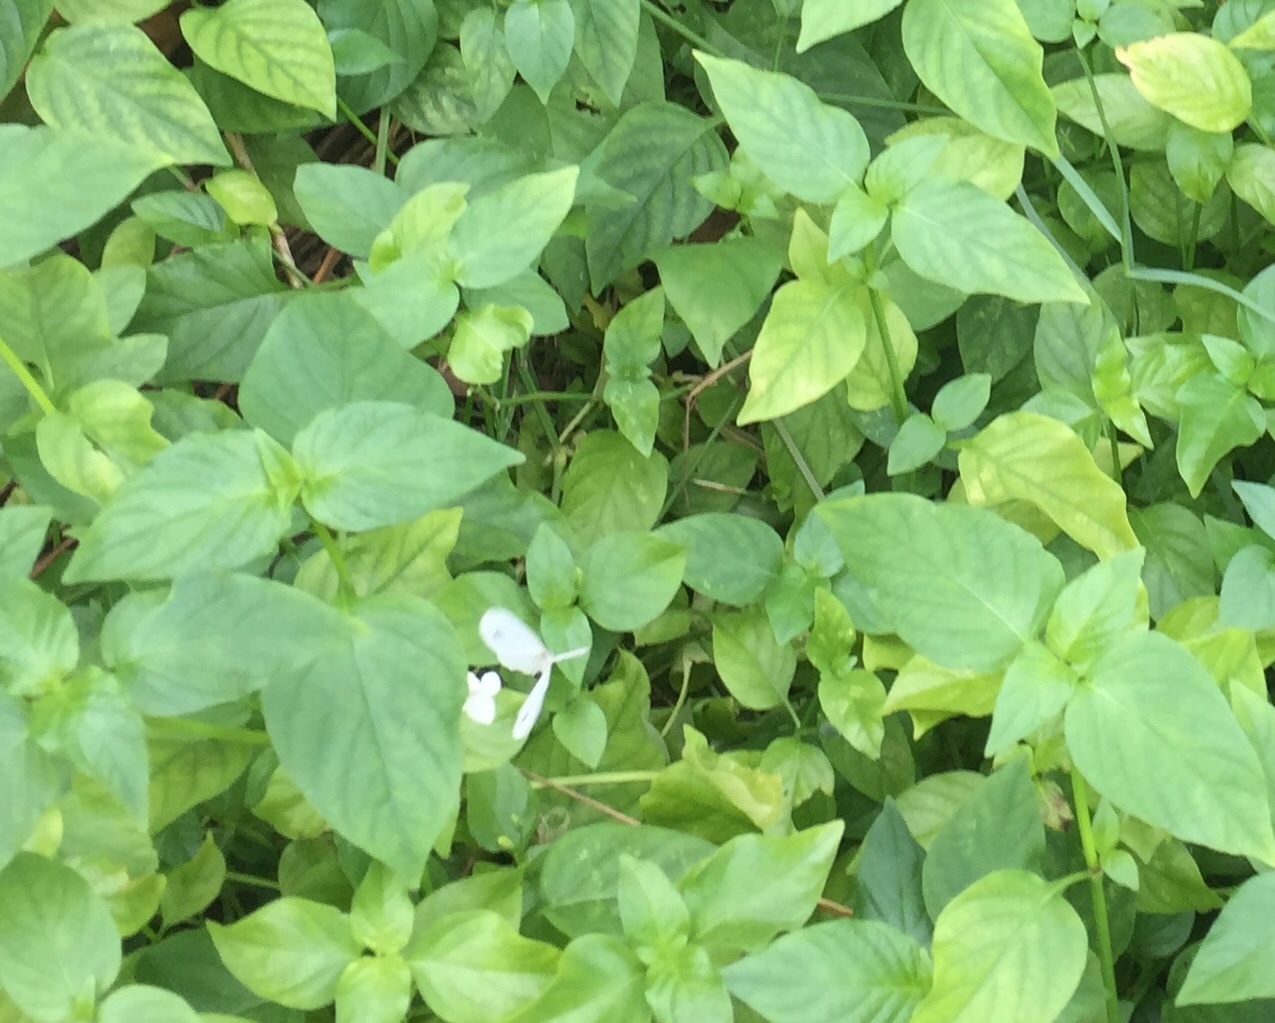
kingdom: Animalia
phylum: Arthropoda
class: Insecta
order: Lepidoptera
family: Pieridae
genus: Leptosia
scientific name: Leptosia nina
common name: Psyche
